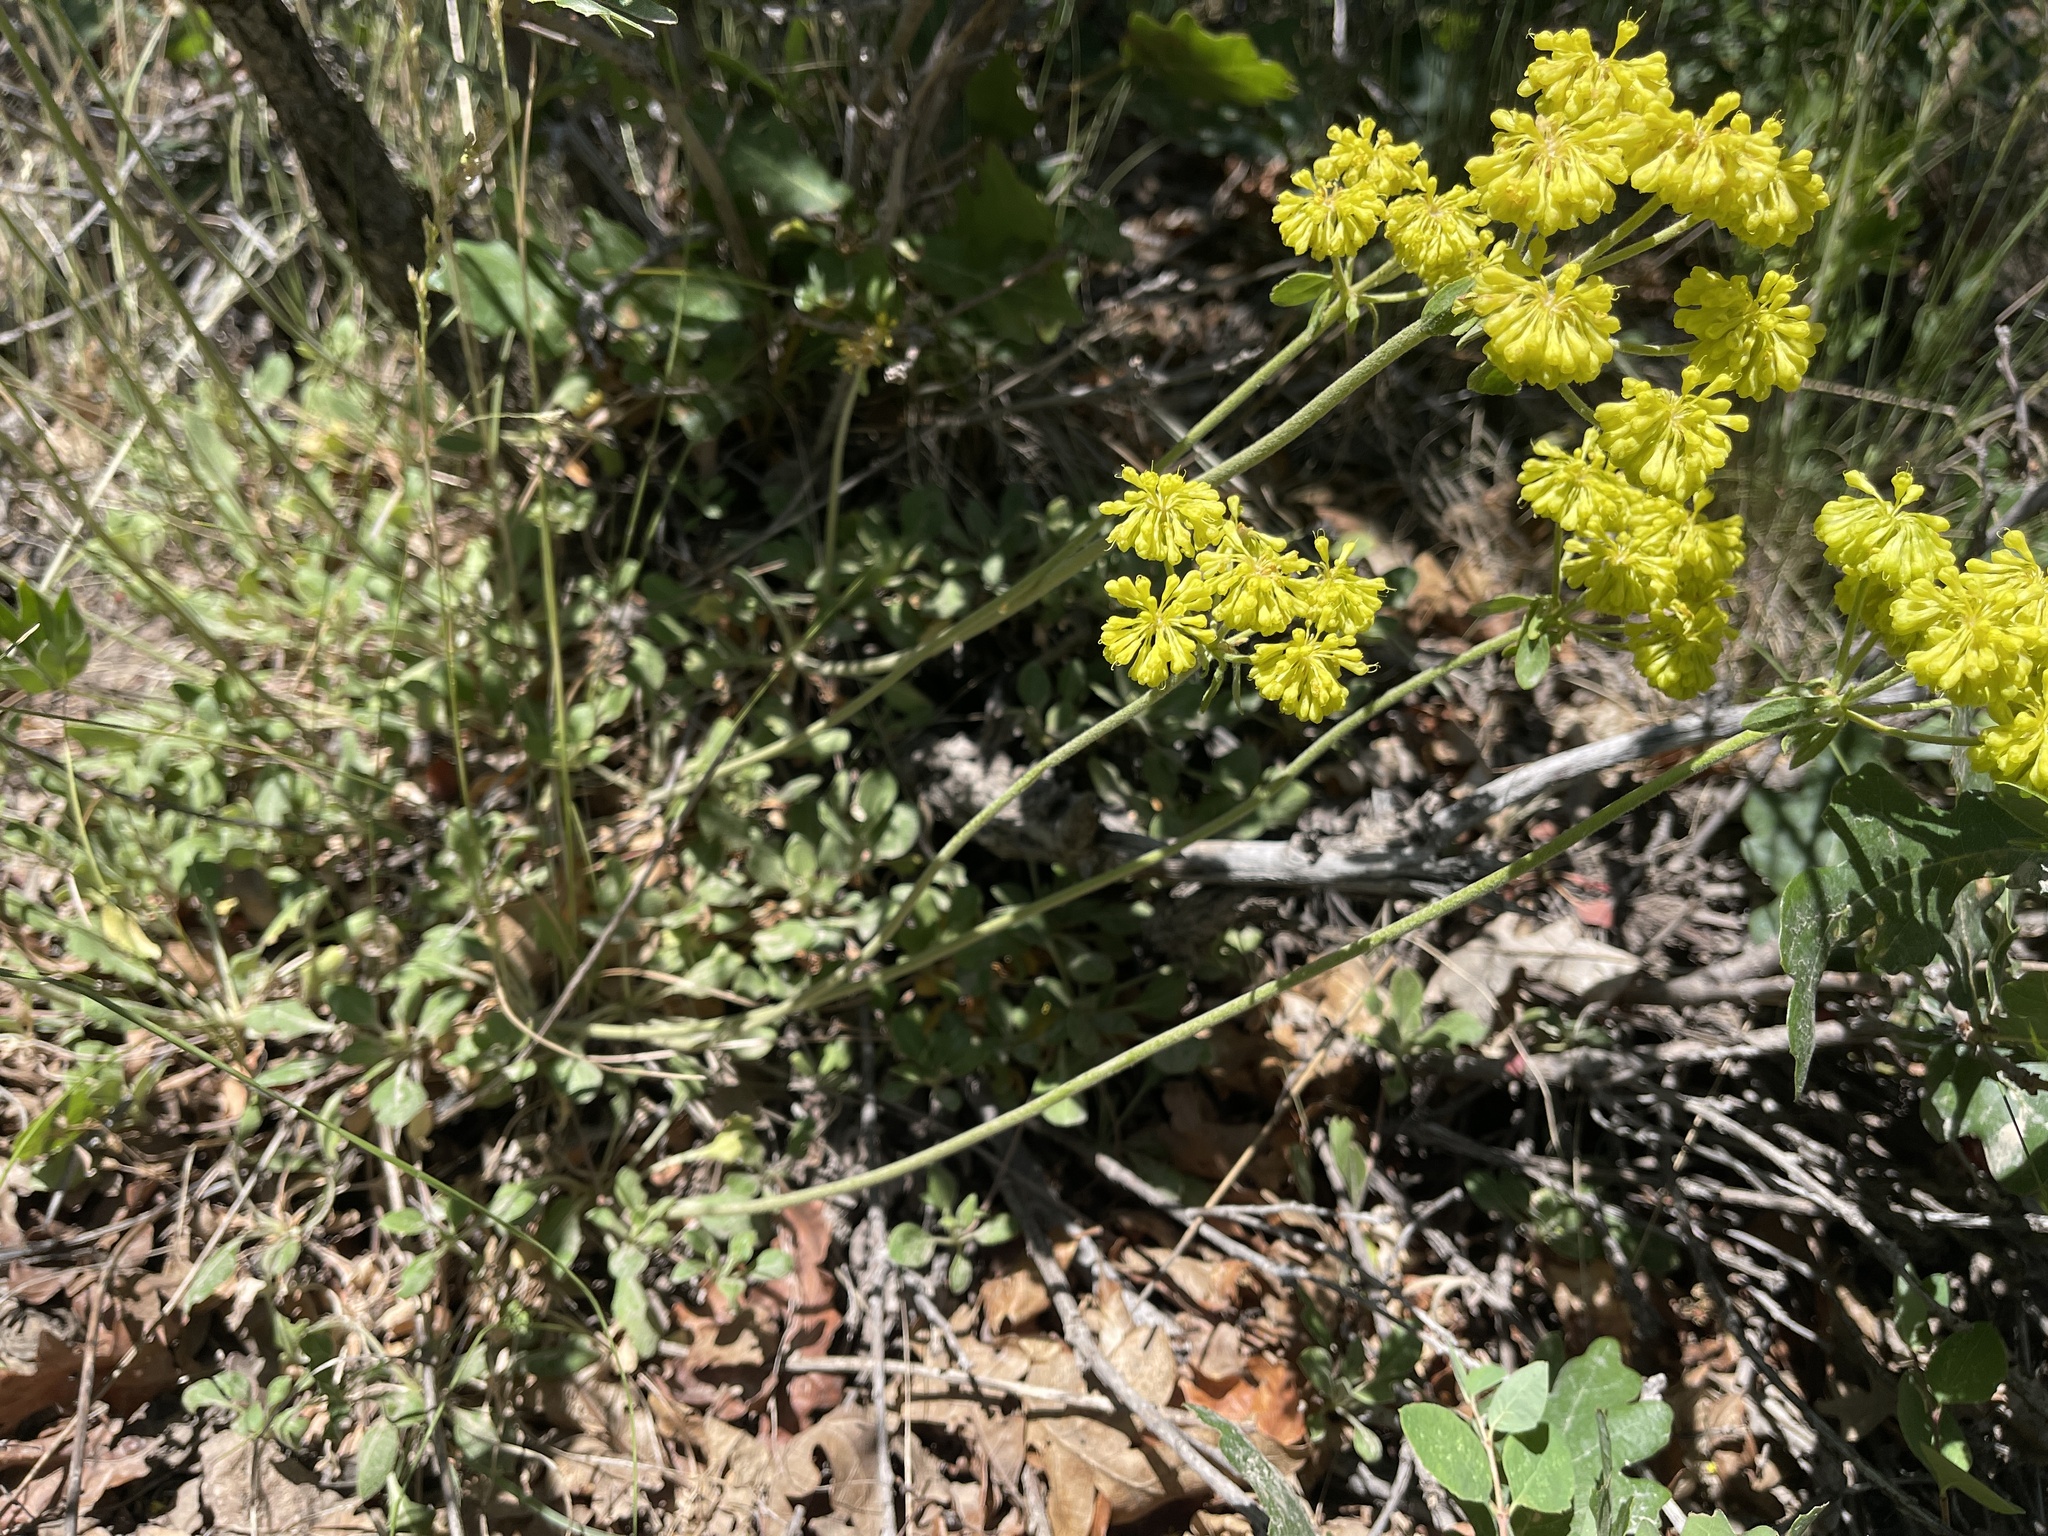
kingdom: Plantae
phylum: Tracheophyta
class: Magnoliopsida
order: Caryophyllales
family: Polygonaceae
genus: Eriogonum
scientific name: Eriogonum umbellatum
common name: Sulfur-buckwheat
